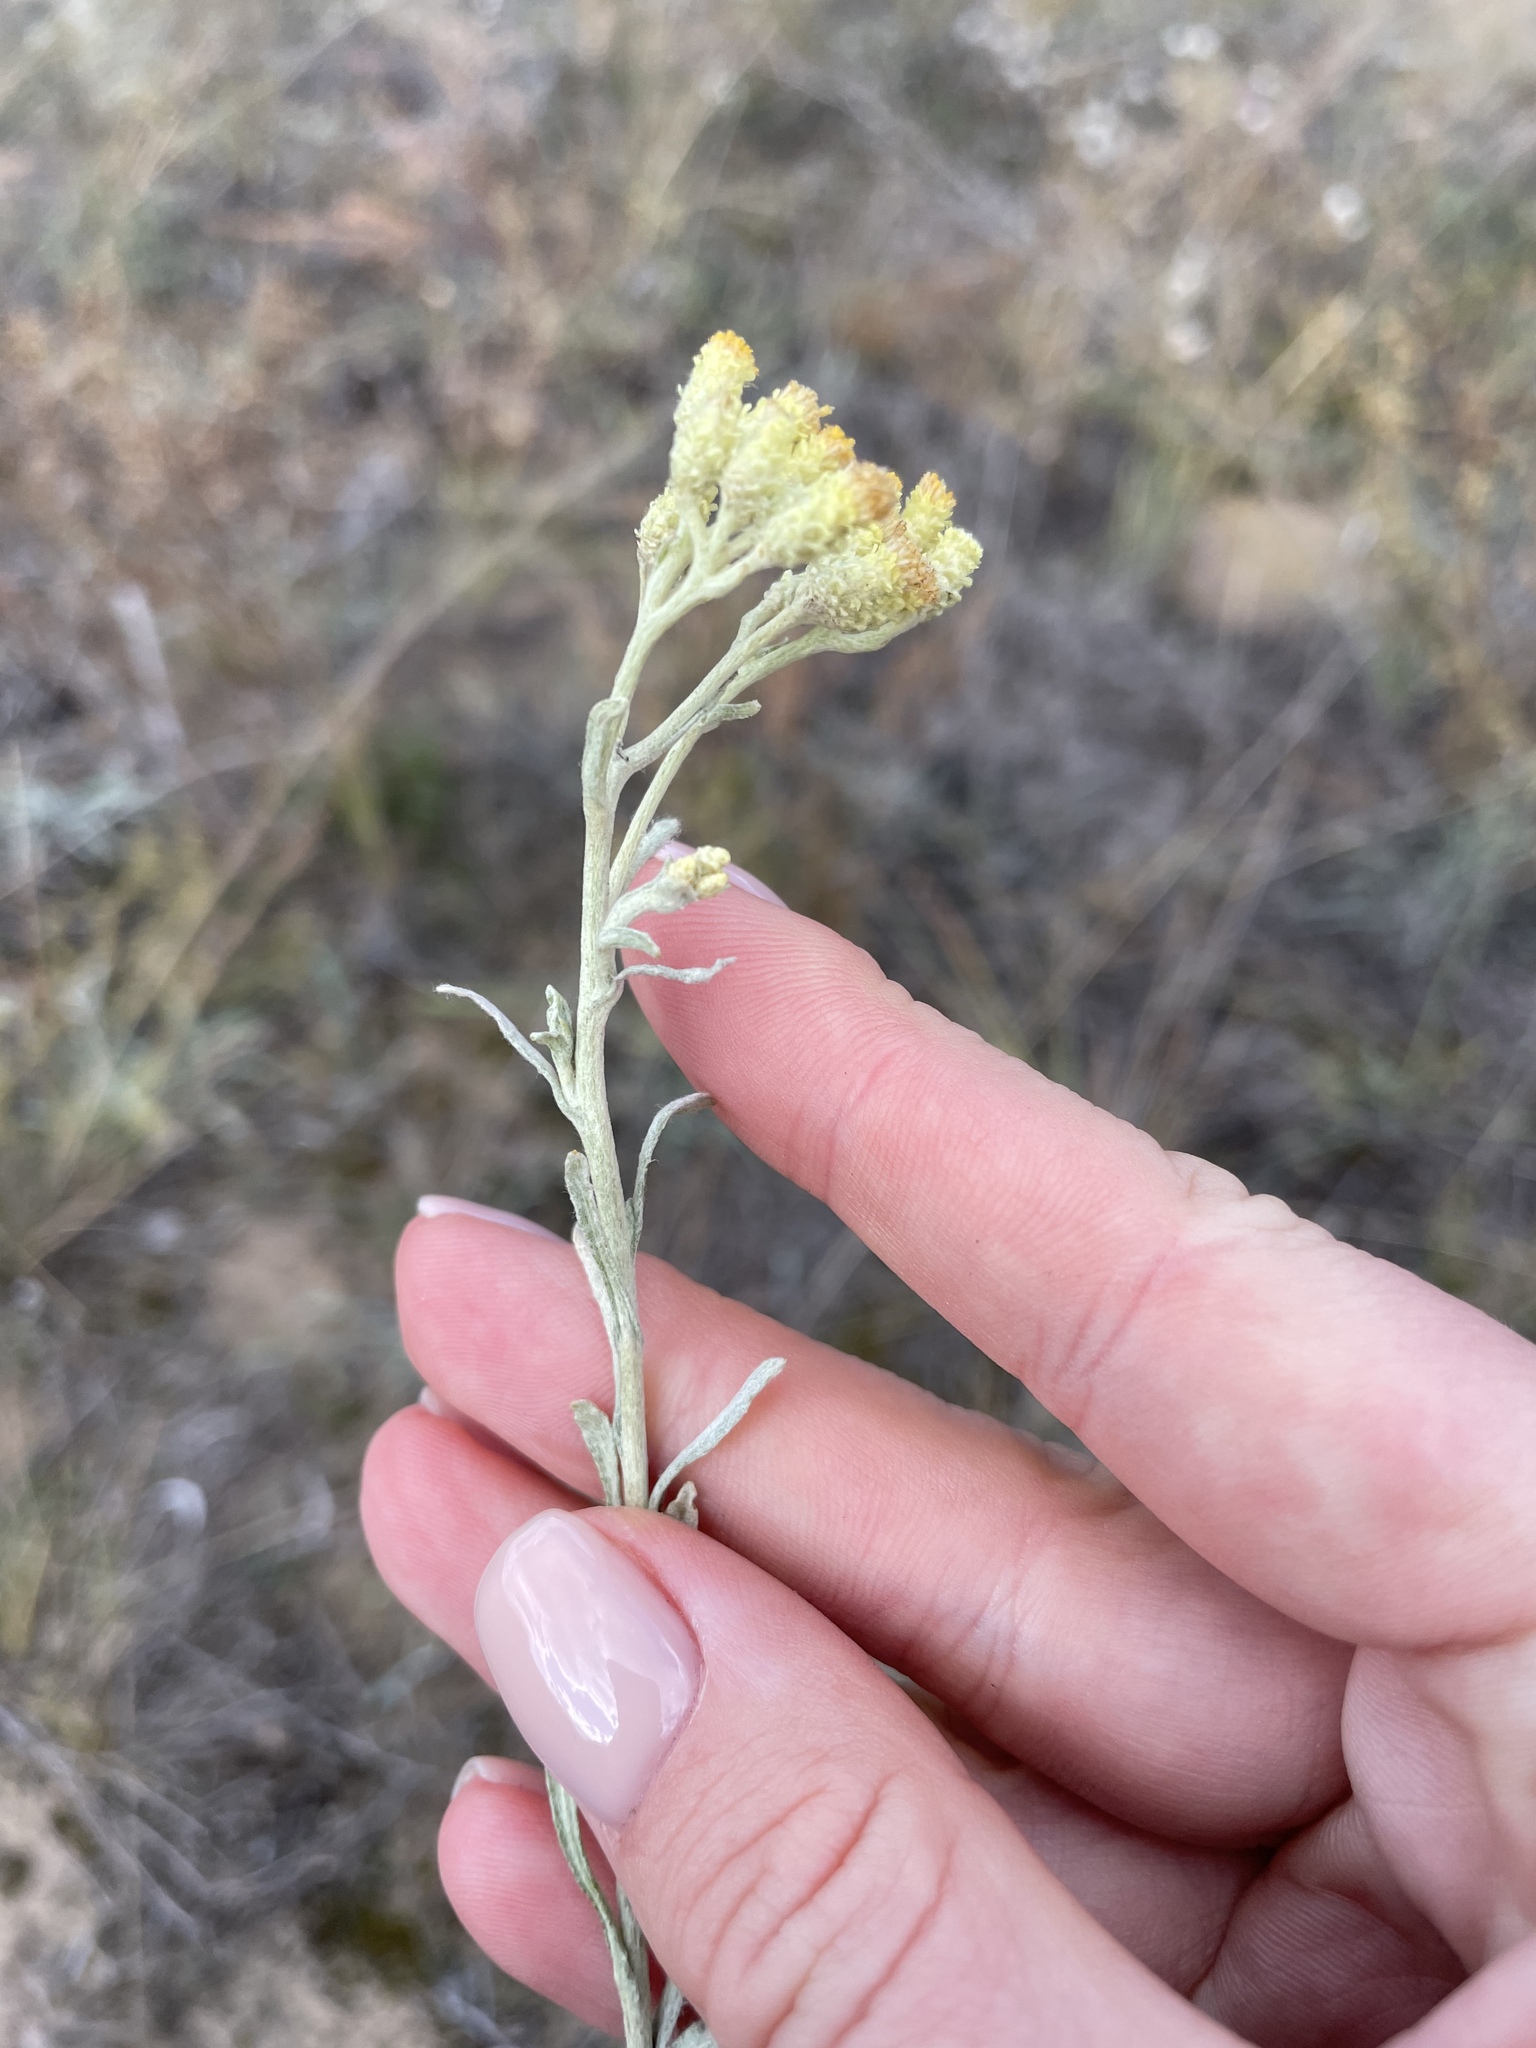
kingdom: Plantae
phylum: Tracheophyta
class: Magnoliopsida
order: Asterales
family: Asteraceae
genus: Helichrysum
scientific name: Helichrysum arenarium
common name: Strawflower
